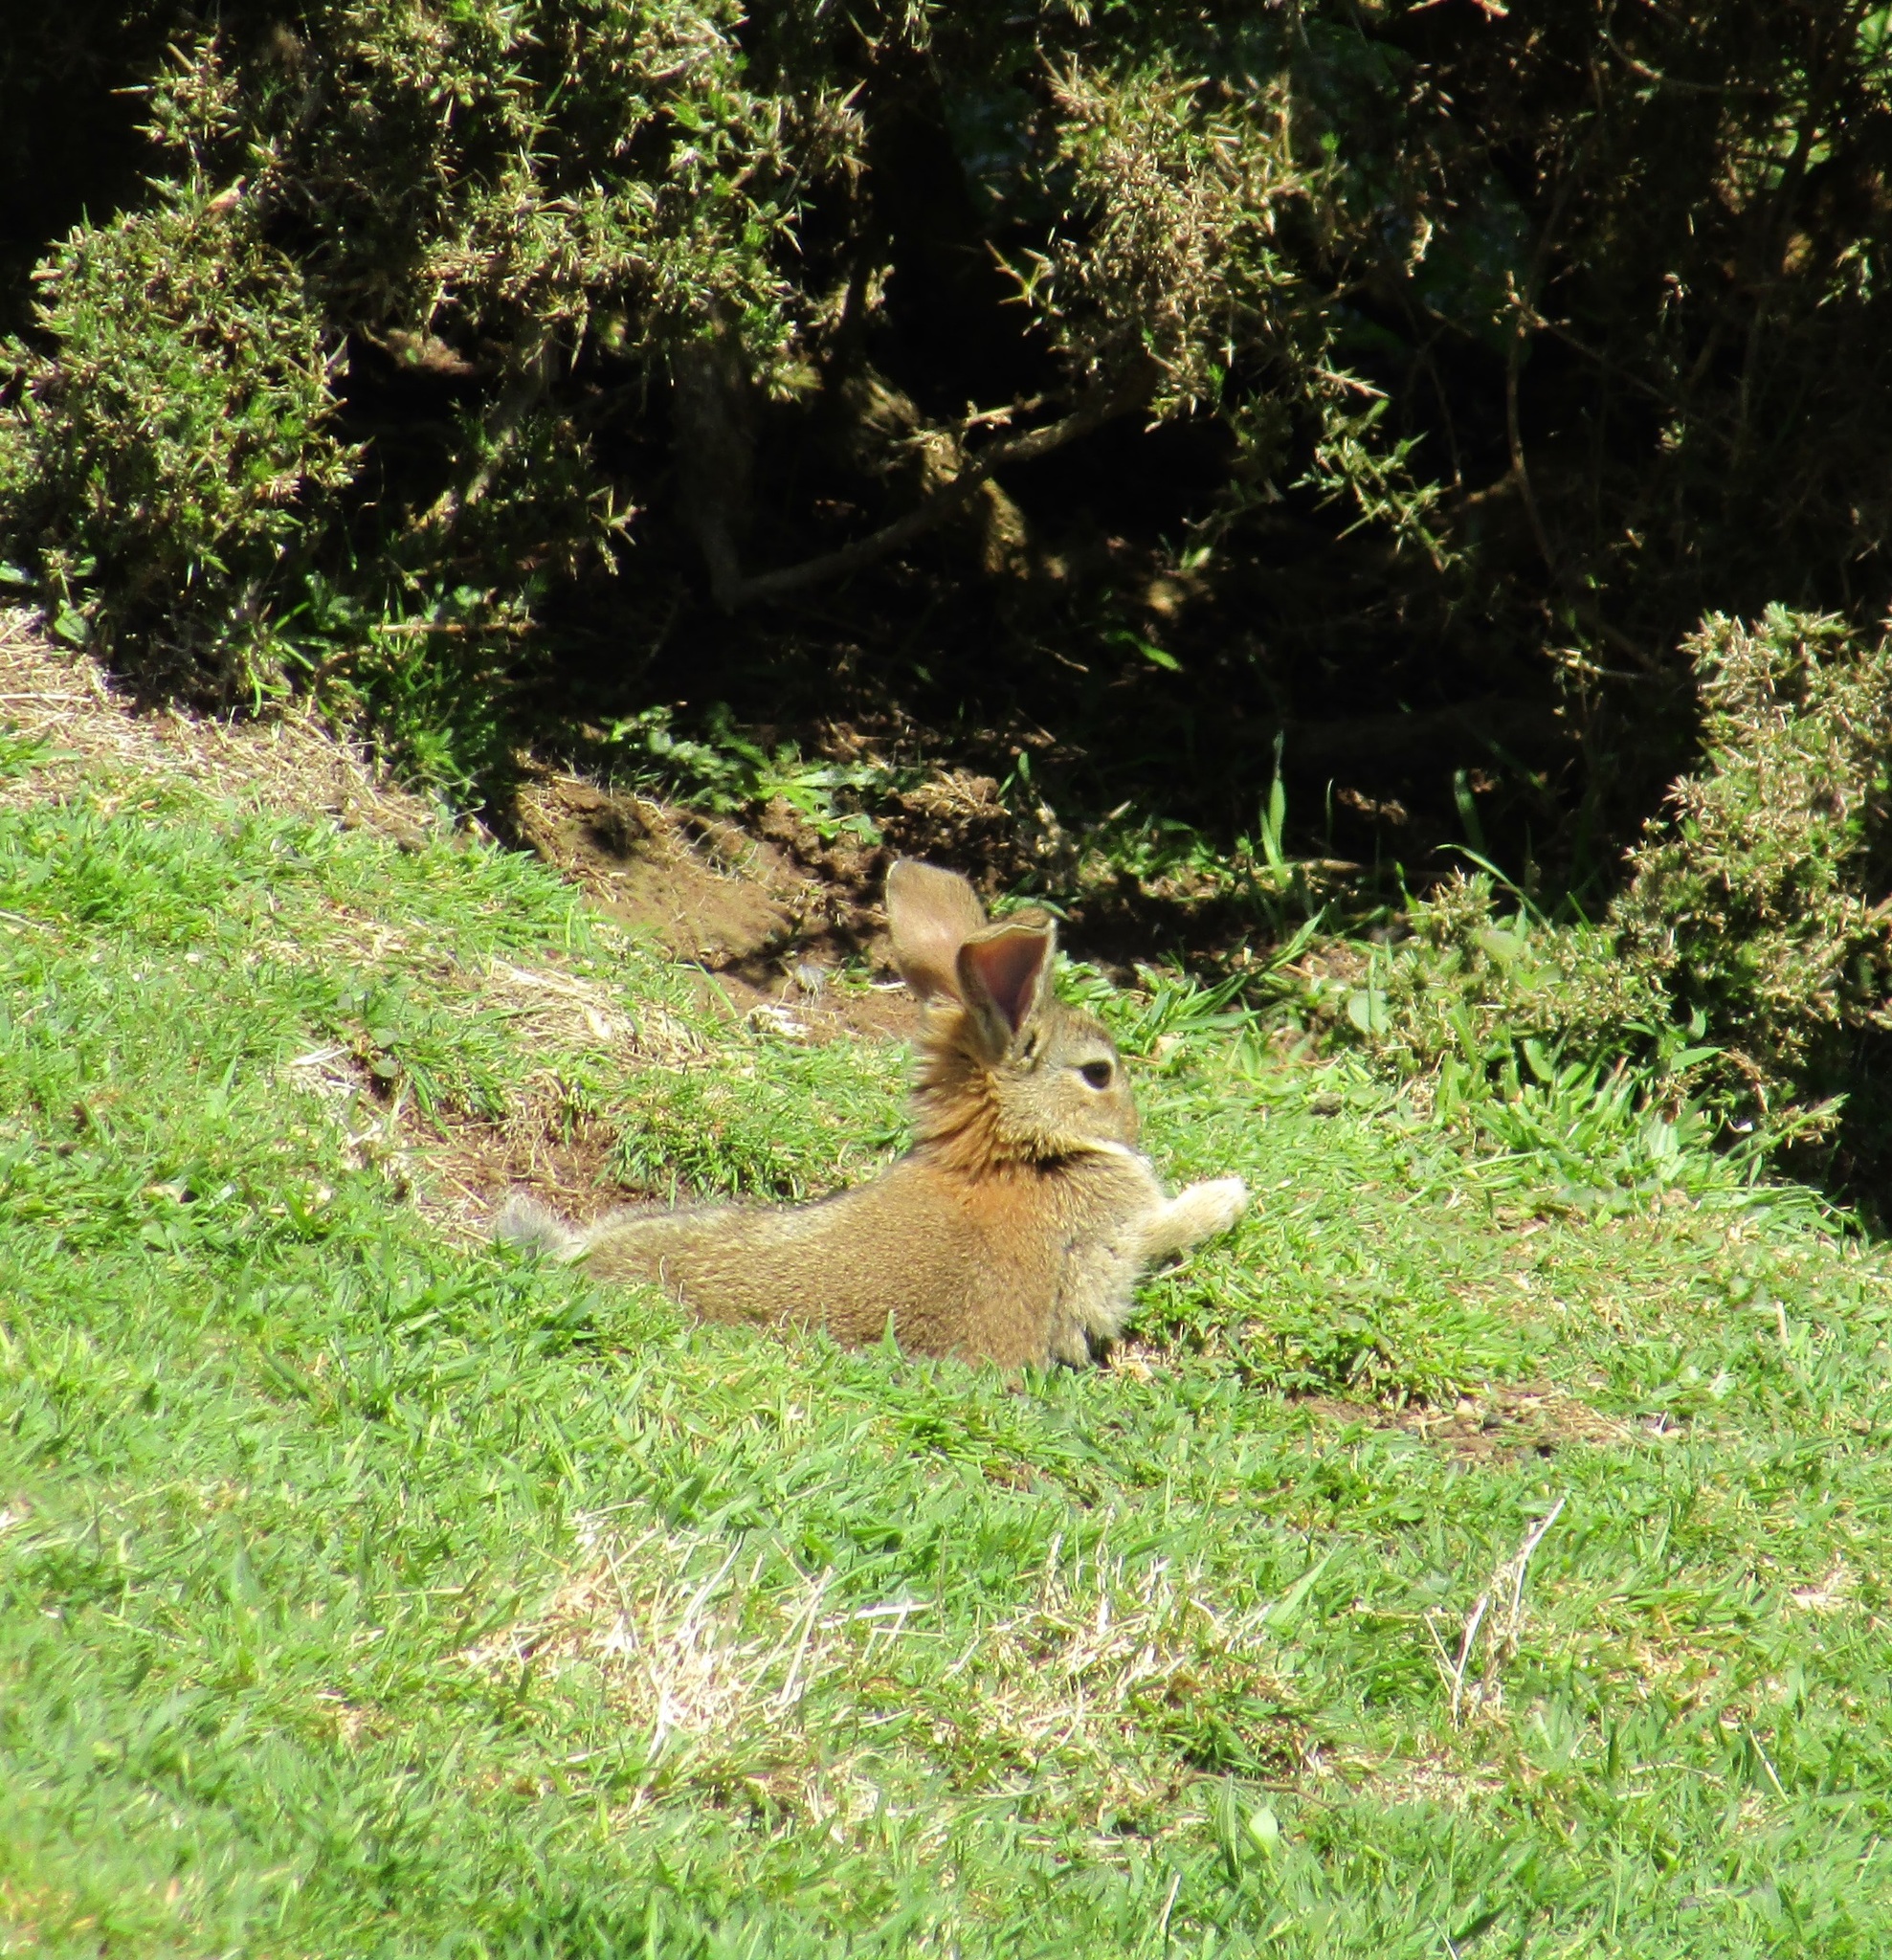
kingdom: Animalia
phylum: Chordata
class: Mammalia
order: Lagomorpha
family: Leporidae
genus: Oryctolagus
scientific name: Oryctolagus cuniculus
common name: European rabbit
